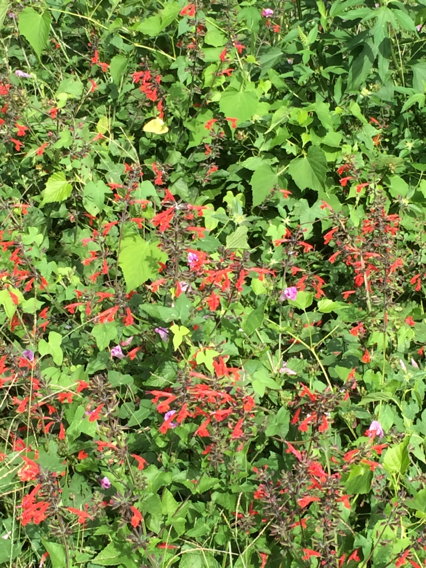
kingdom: Plantae
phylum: Tracheophyta
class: Magnoliopsida
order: Lamiales
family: Lamiaceae
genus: Salvia
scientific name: Salvia coccinea
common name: Blood sage
